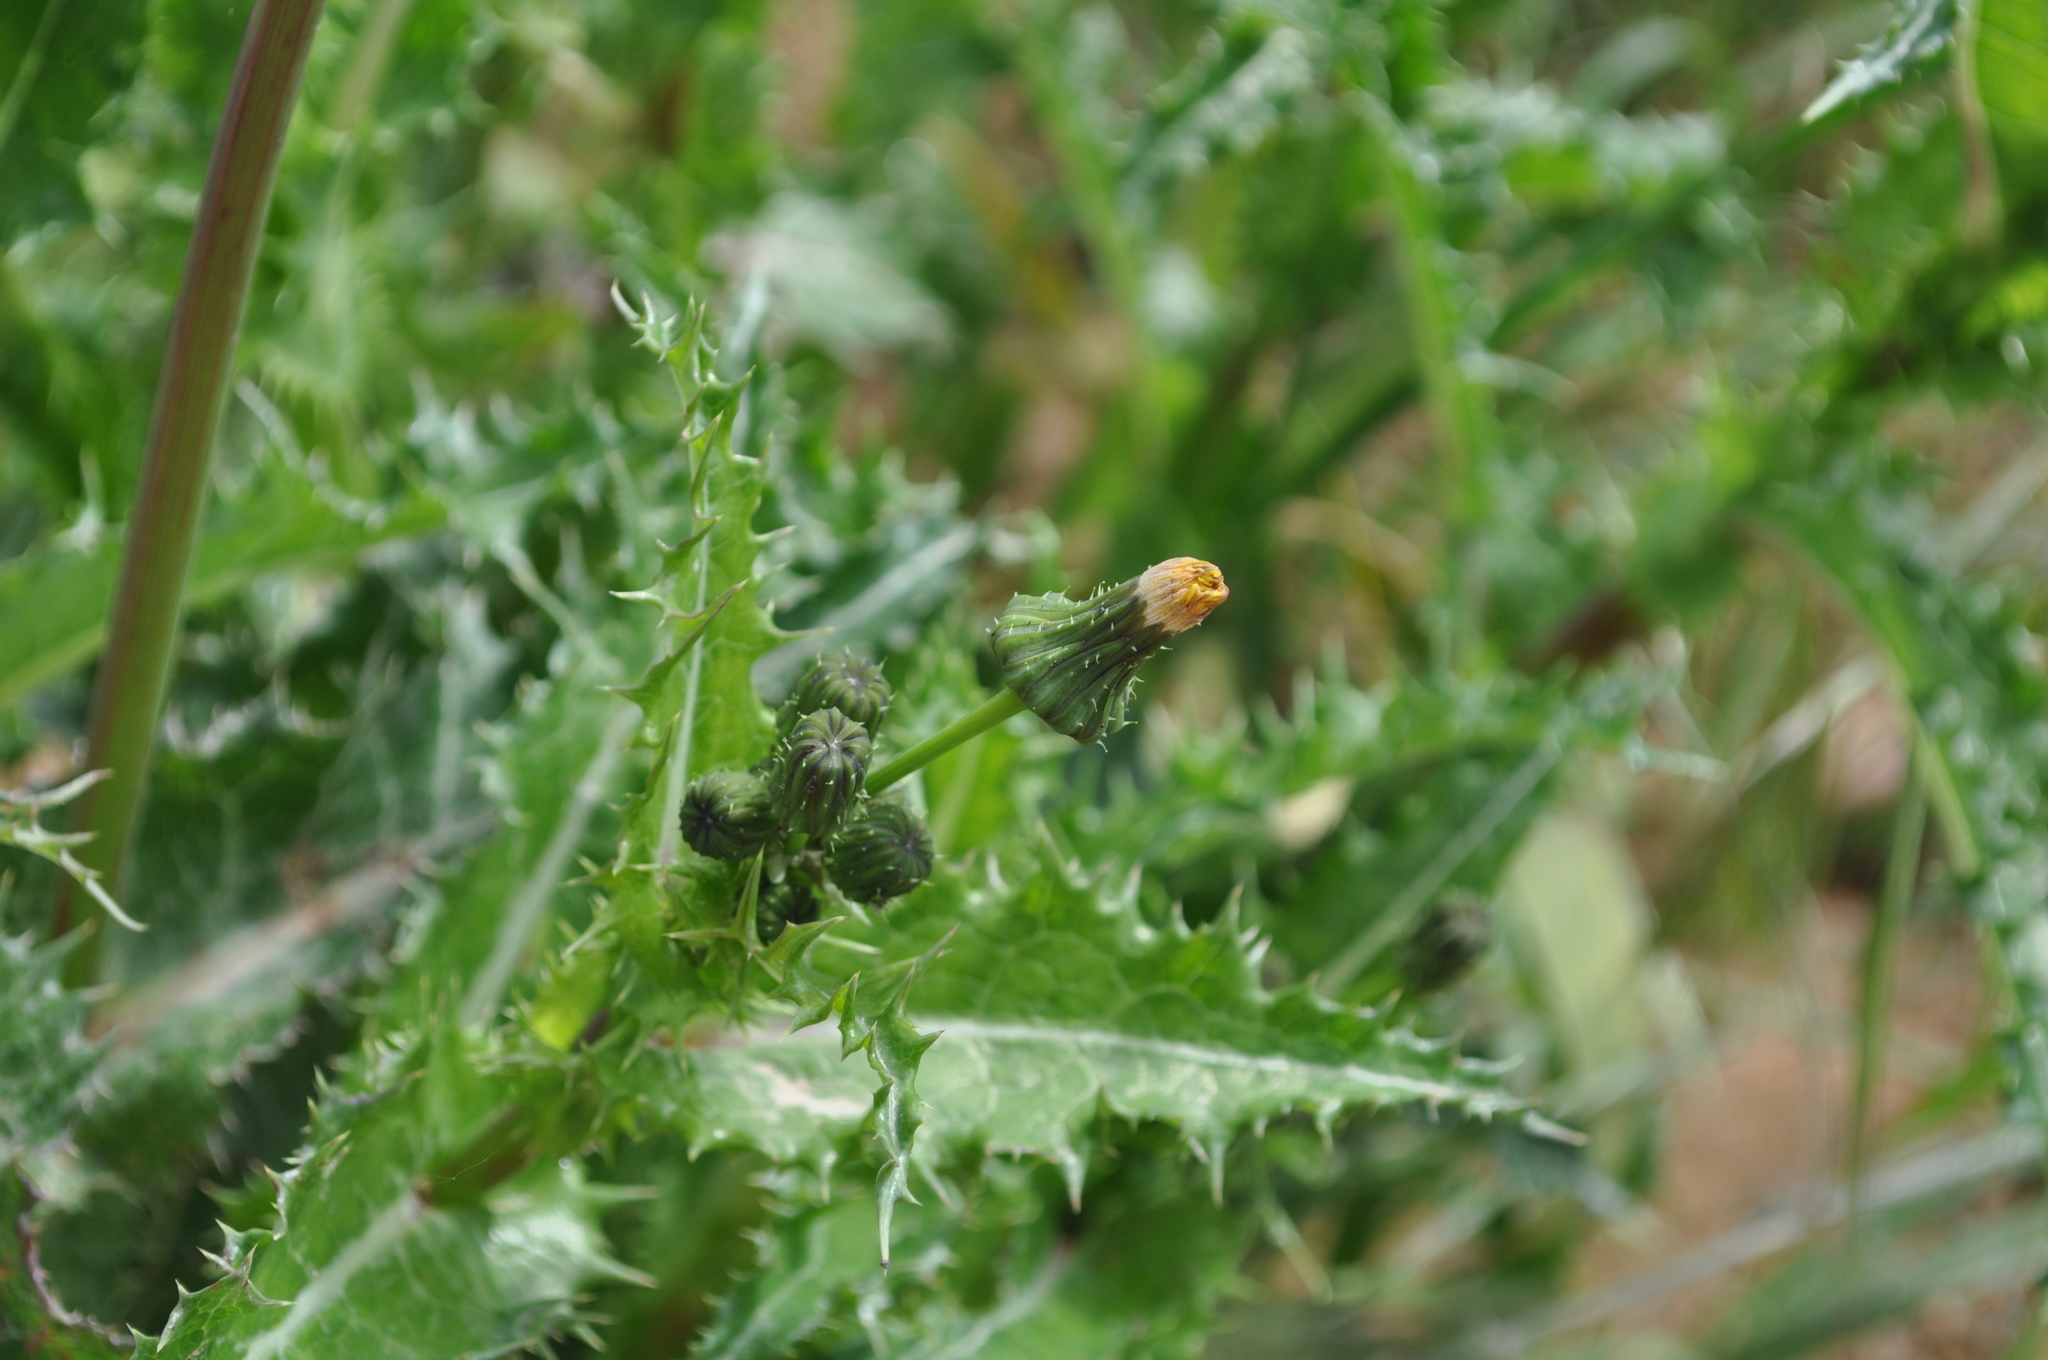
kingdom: Plantae
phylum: Tracheophyta
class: Magnoliopsida
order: Asterales
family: Asteraceae
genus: Sonchus
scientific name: Sonchus asper
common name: Prickly sow-thistle
